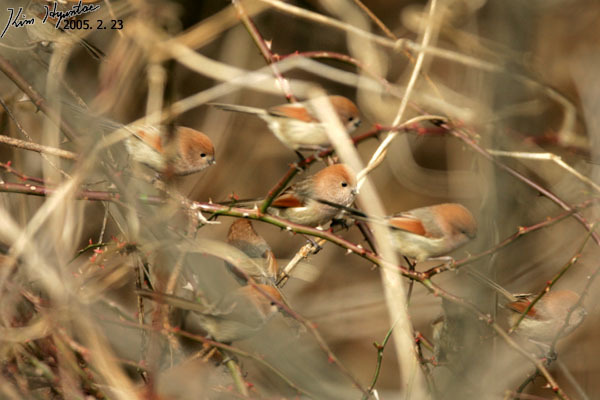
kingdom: Animalia
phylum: Chordata
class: Aves
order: Passeriformes
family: Sylviidae
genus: Sinosuthora
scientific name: Sinosuthora webbiana
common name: Vinous-throated parrotbill
